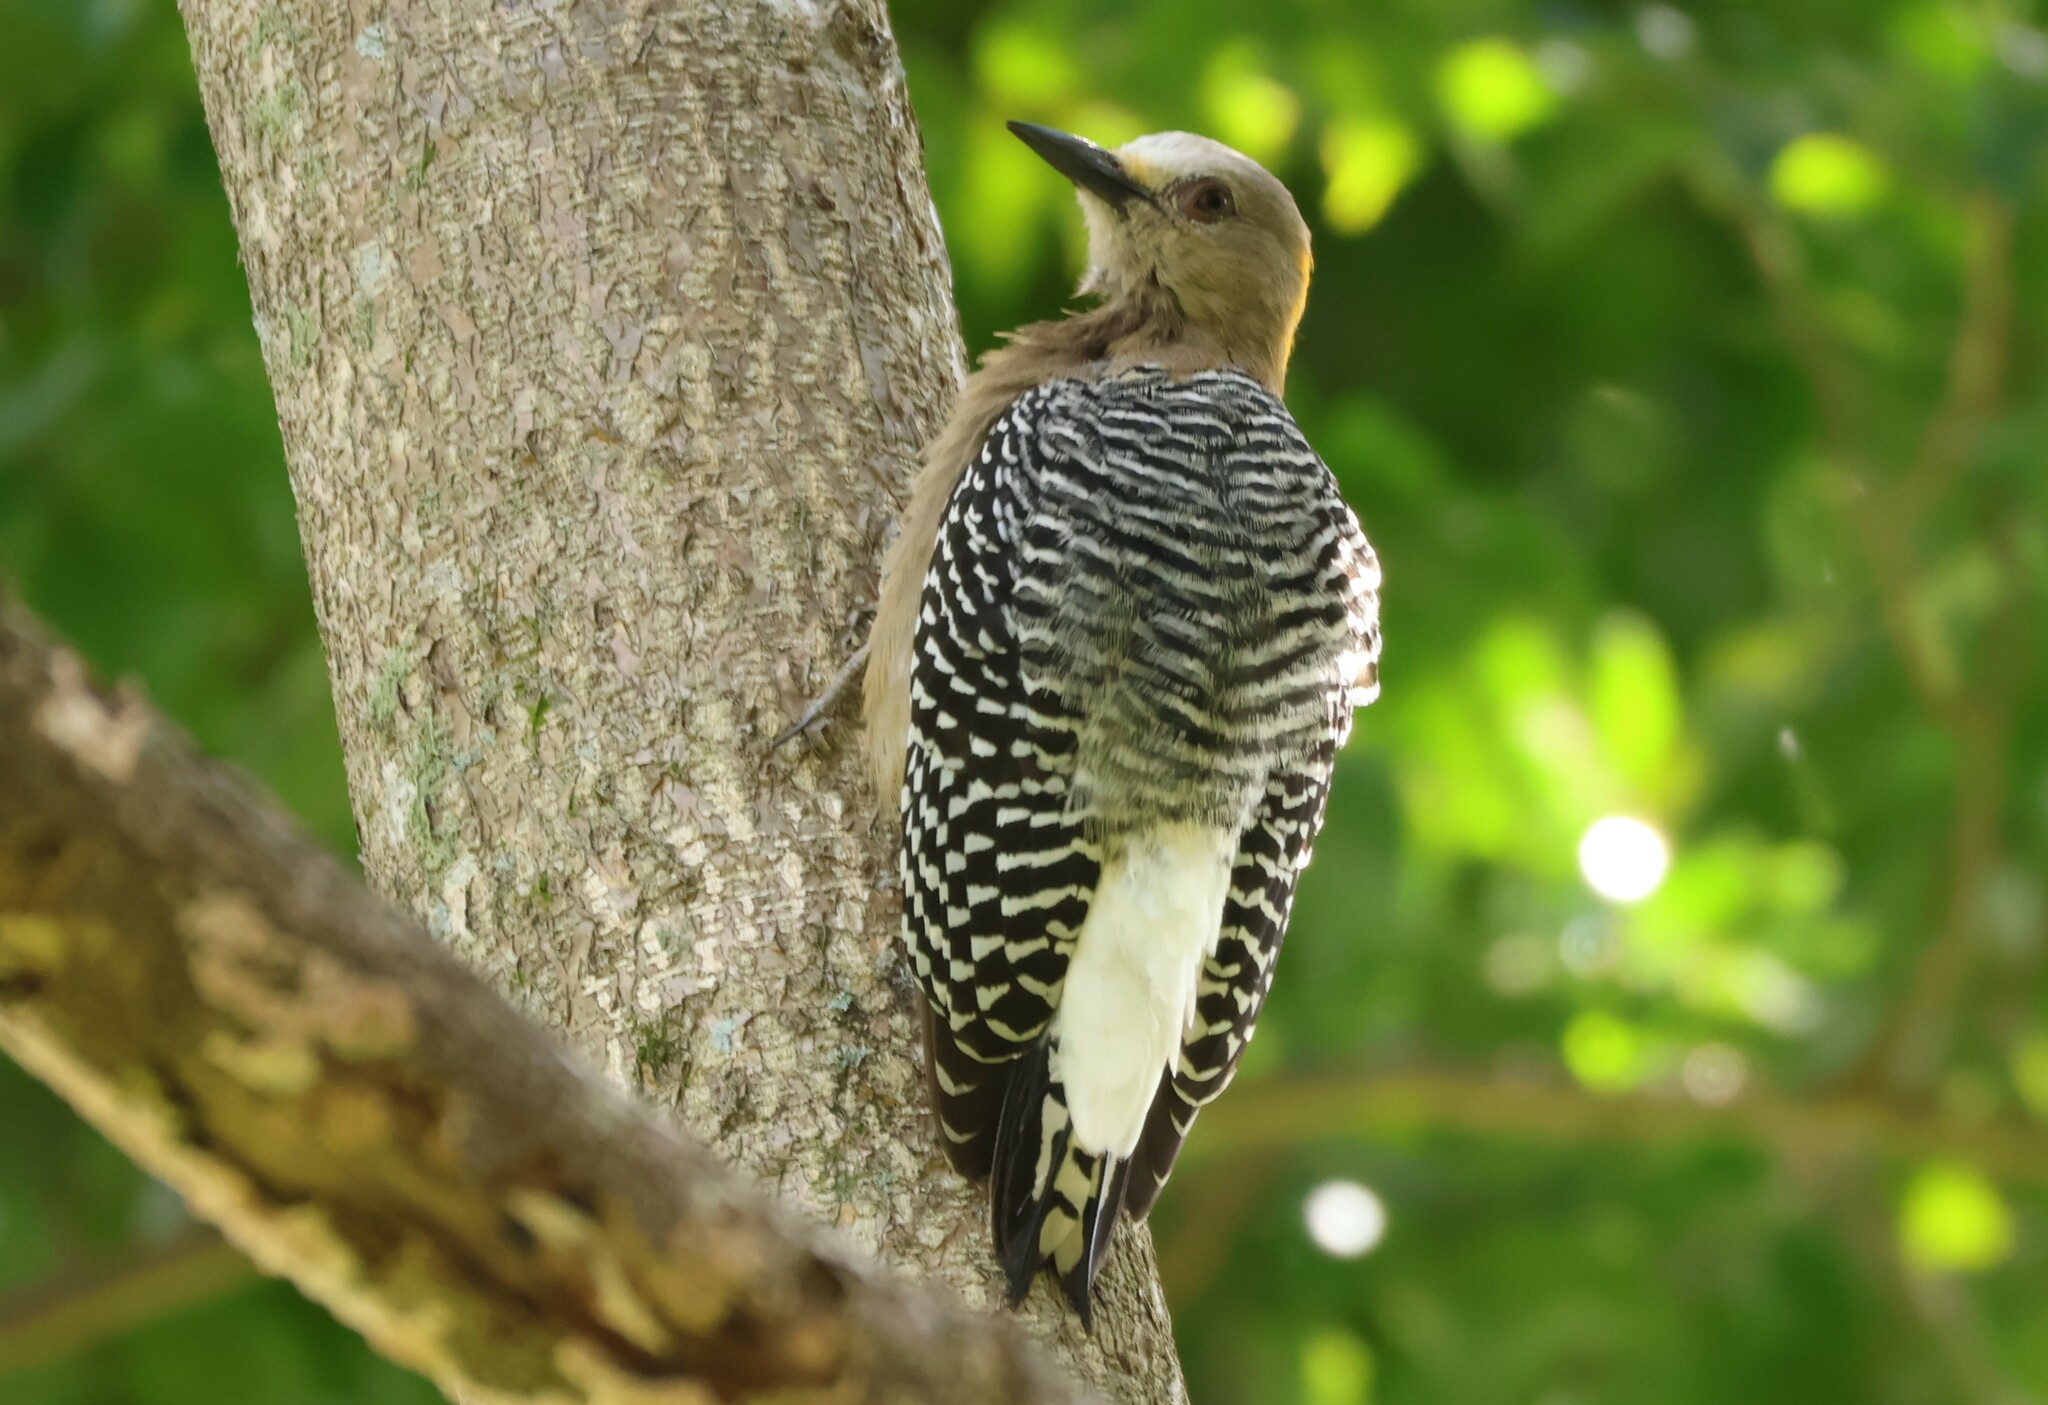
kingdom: Animalia
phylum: Chordata
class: Aves
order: Piciformes
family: Picidae
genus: Melanerpes
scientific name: Melanerpes hoffmannii
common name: Hoffmann's woodpecker
